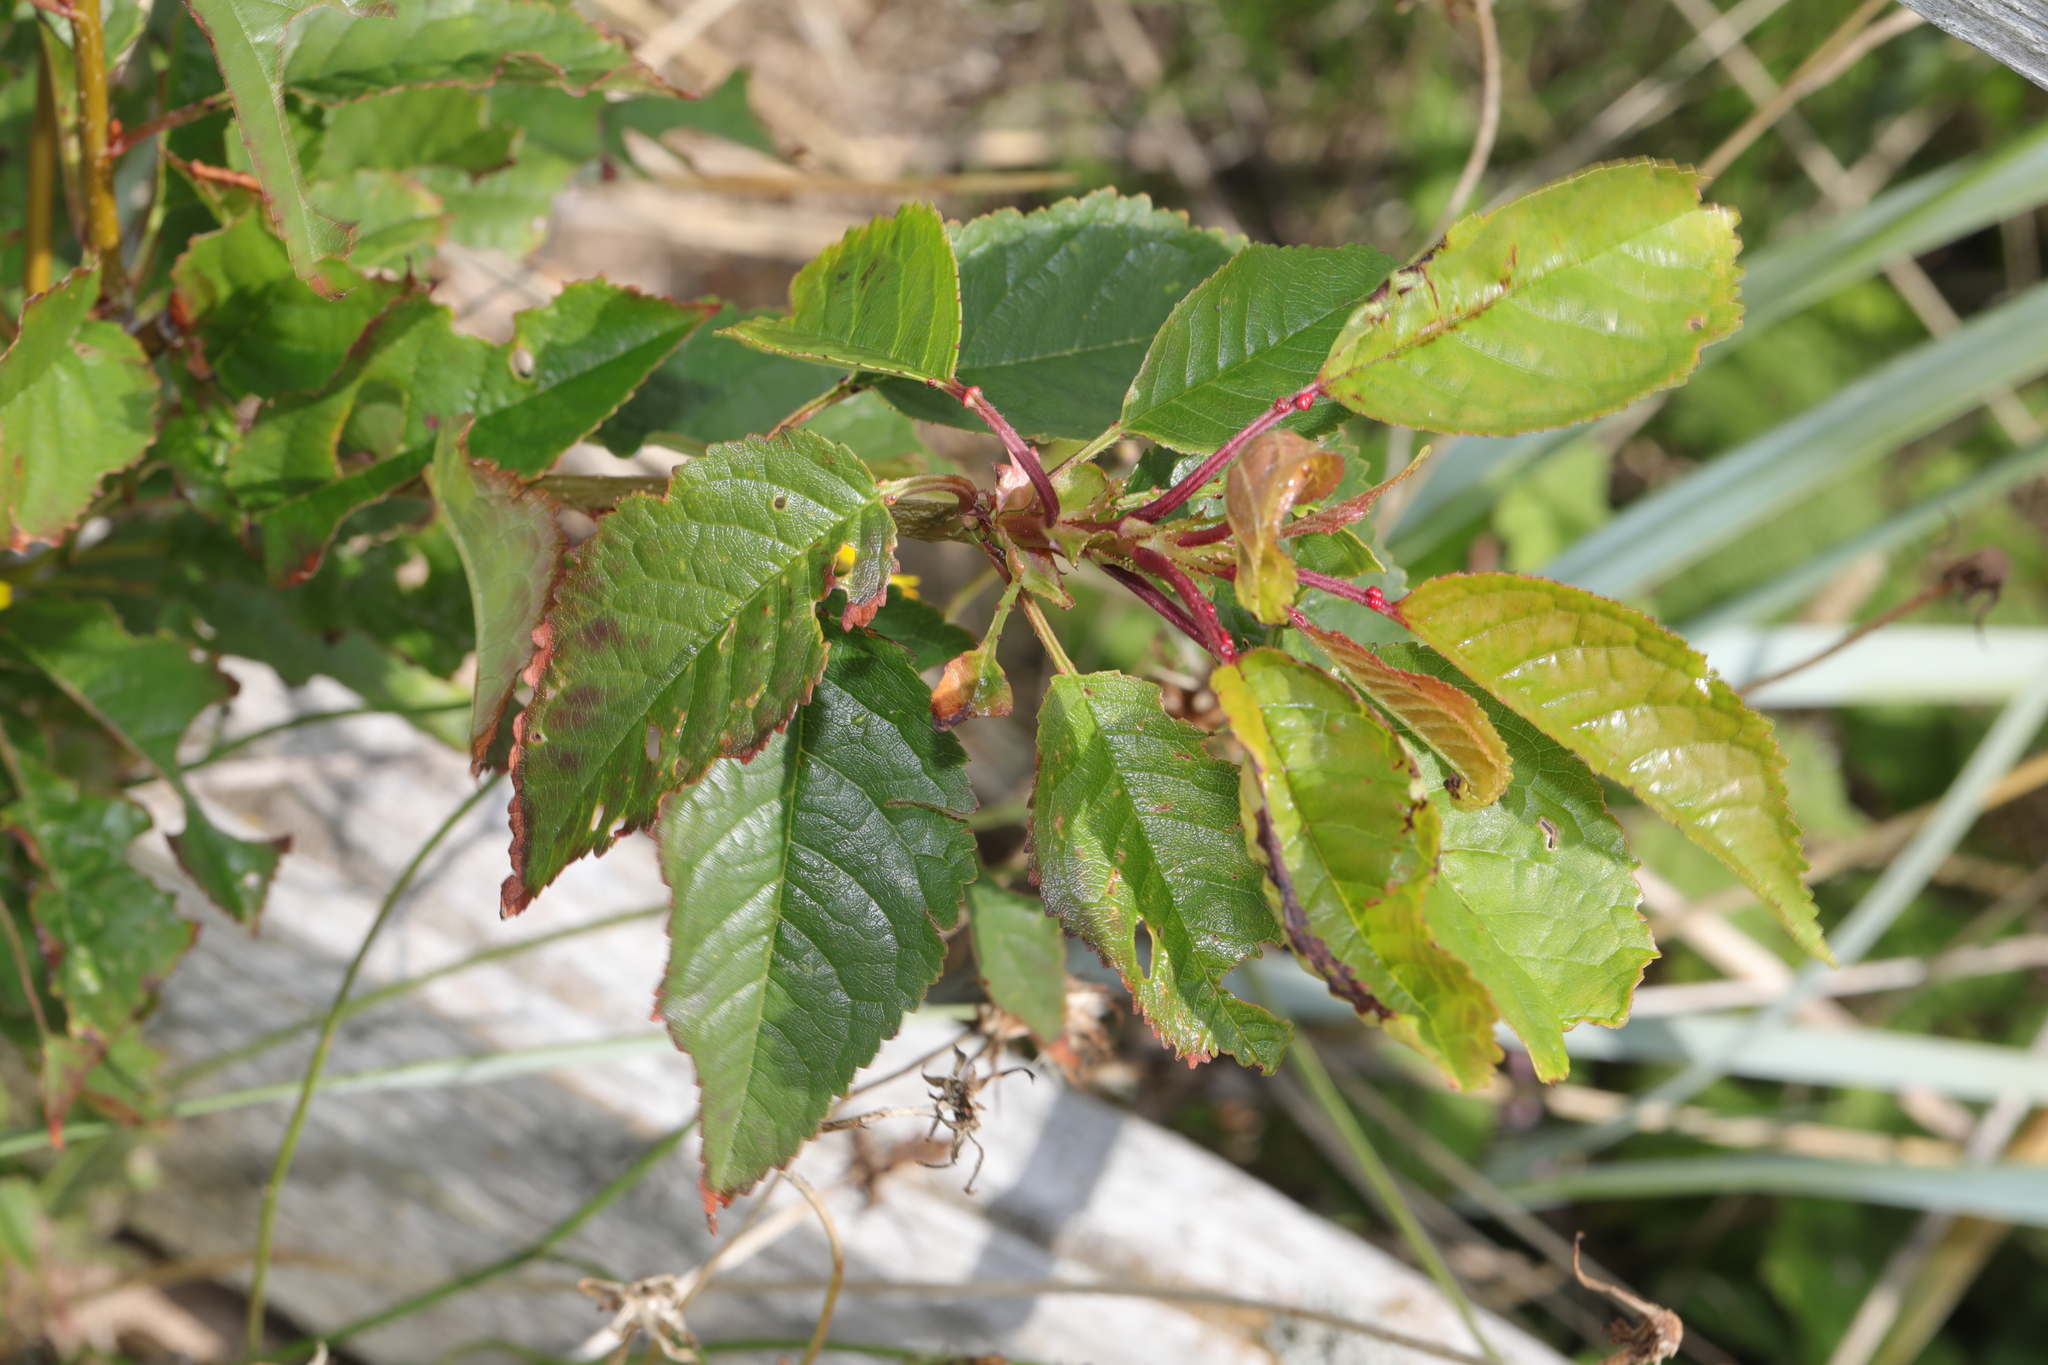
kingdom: Plantae
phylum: Tracheophyta
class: Magnoliopsida
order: Rosales
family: Rosaceae
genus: Prunus
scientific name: Prunus avium
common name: Sweet cherry
